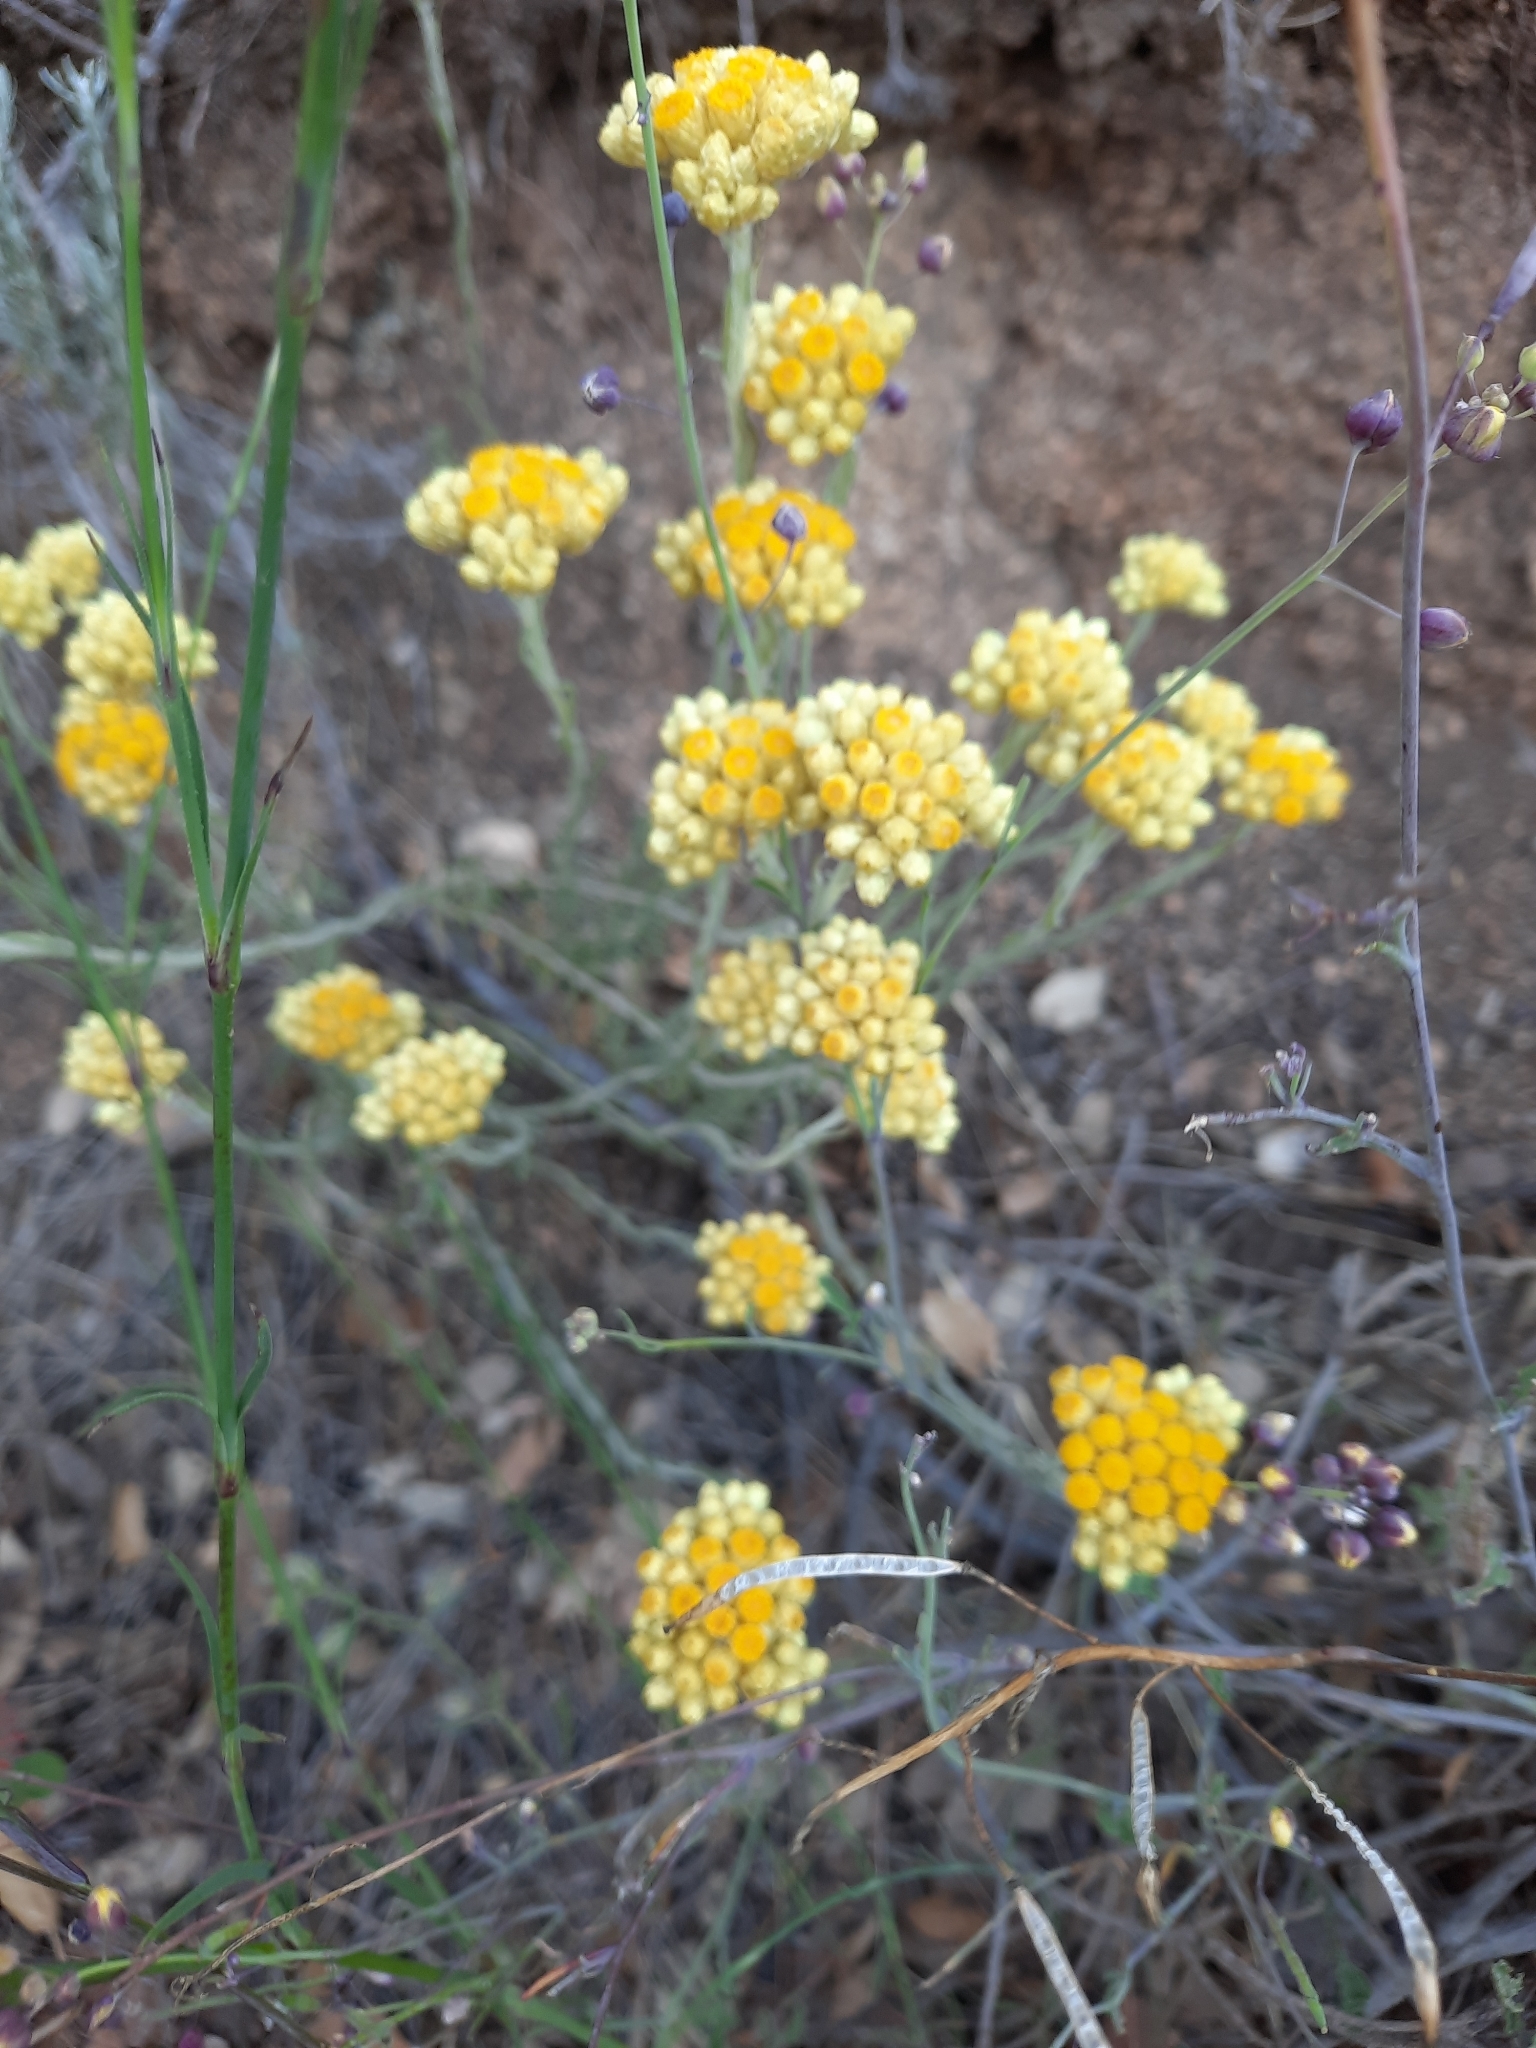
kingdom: Plantae
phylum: Tracheophyta
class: Magnoliopsida
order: Asterales
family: Asteraceae
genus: Helichrysum
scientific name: Helichrysum stoechas
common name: Goldilocks
